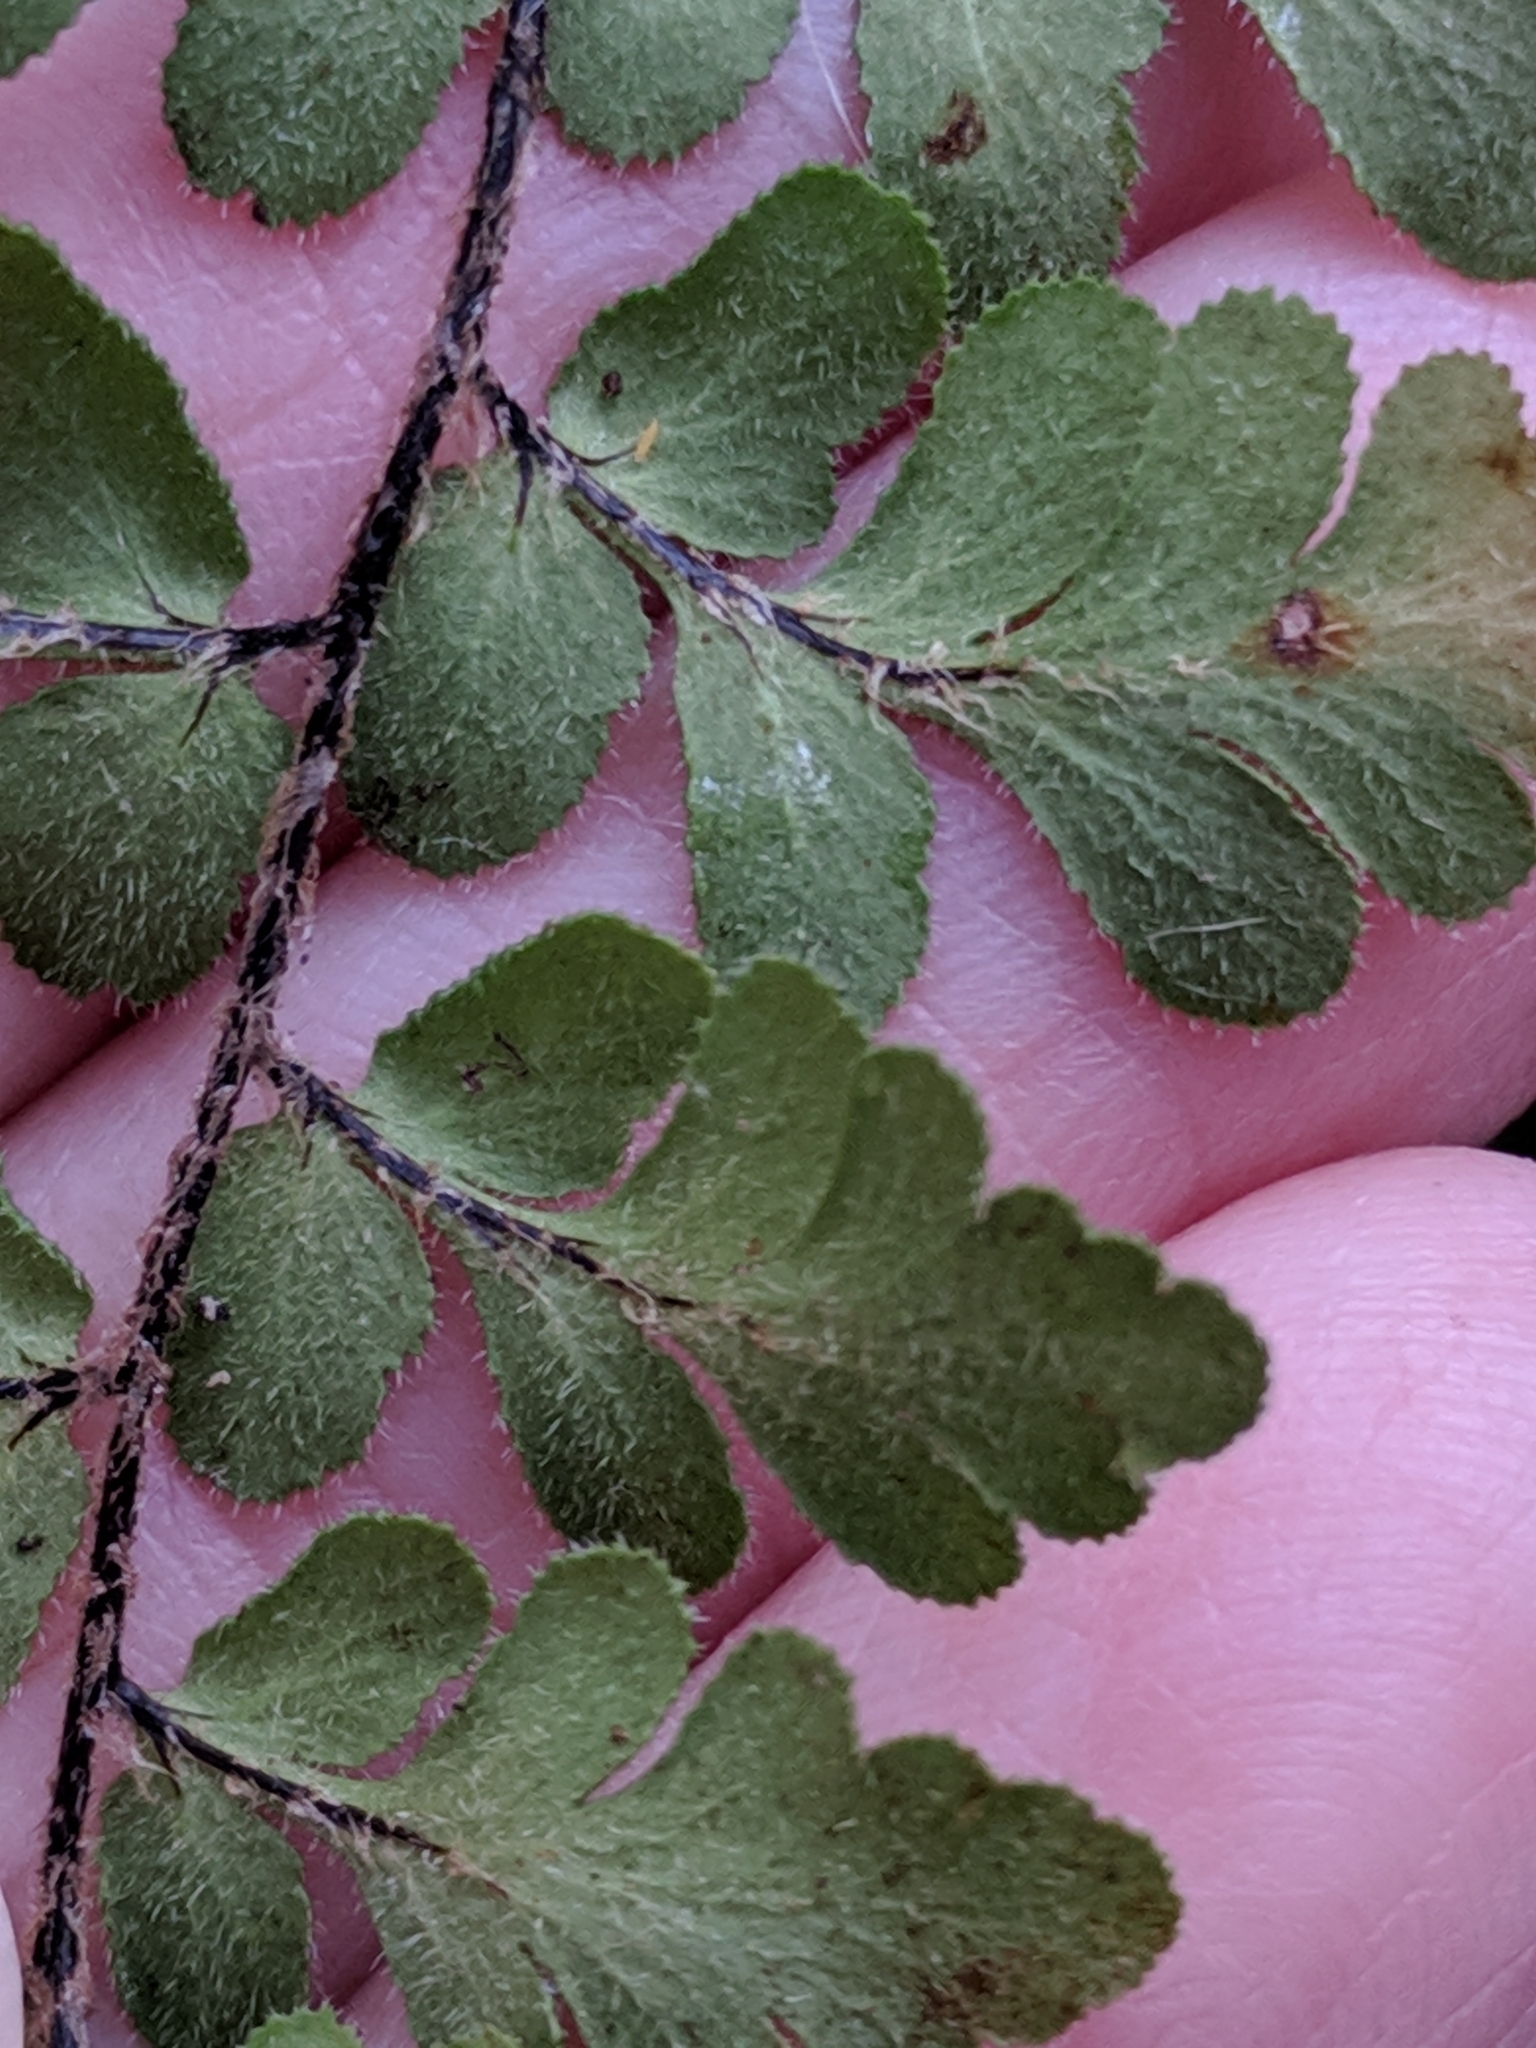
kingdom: Plantae
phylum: Tracheophyta
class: Polypodiopsida
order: Polypodiales
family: Pteridaceae
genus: Myriopteris
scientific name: Myriopteris scabra
